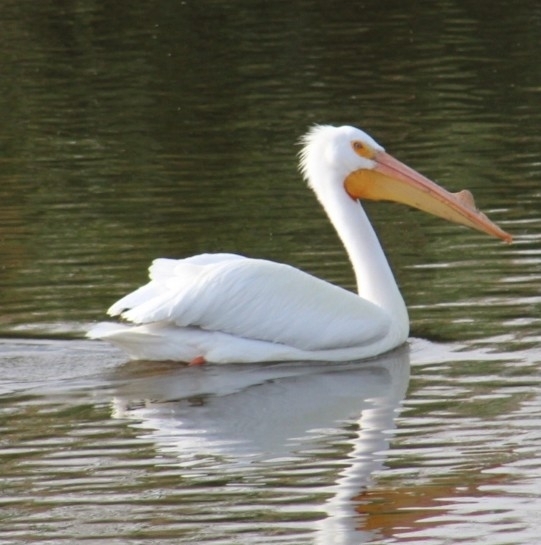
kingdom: Animalia
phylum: Chordata
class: Aves
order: Pelecaniformes
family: Pelecanidae
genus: Pelecanus
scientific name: Pelecanus erythrorhynchos
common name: American white pelican
